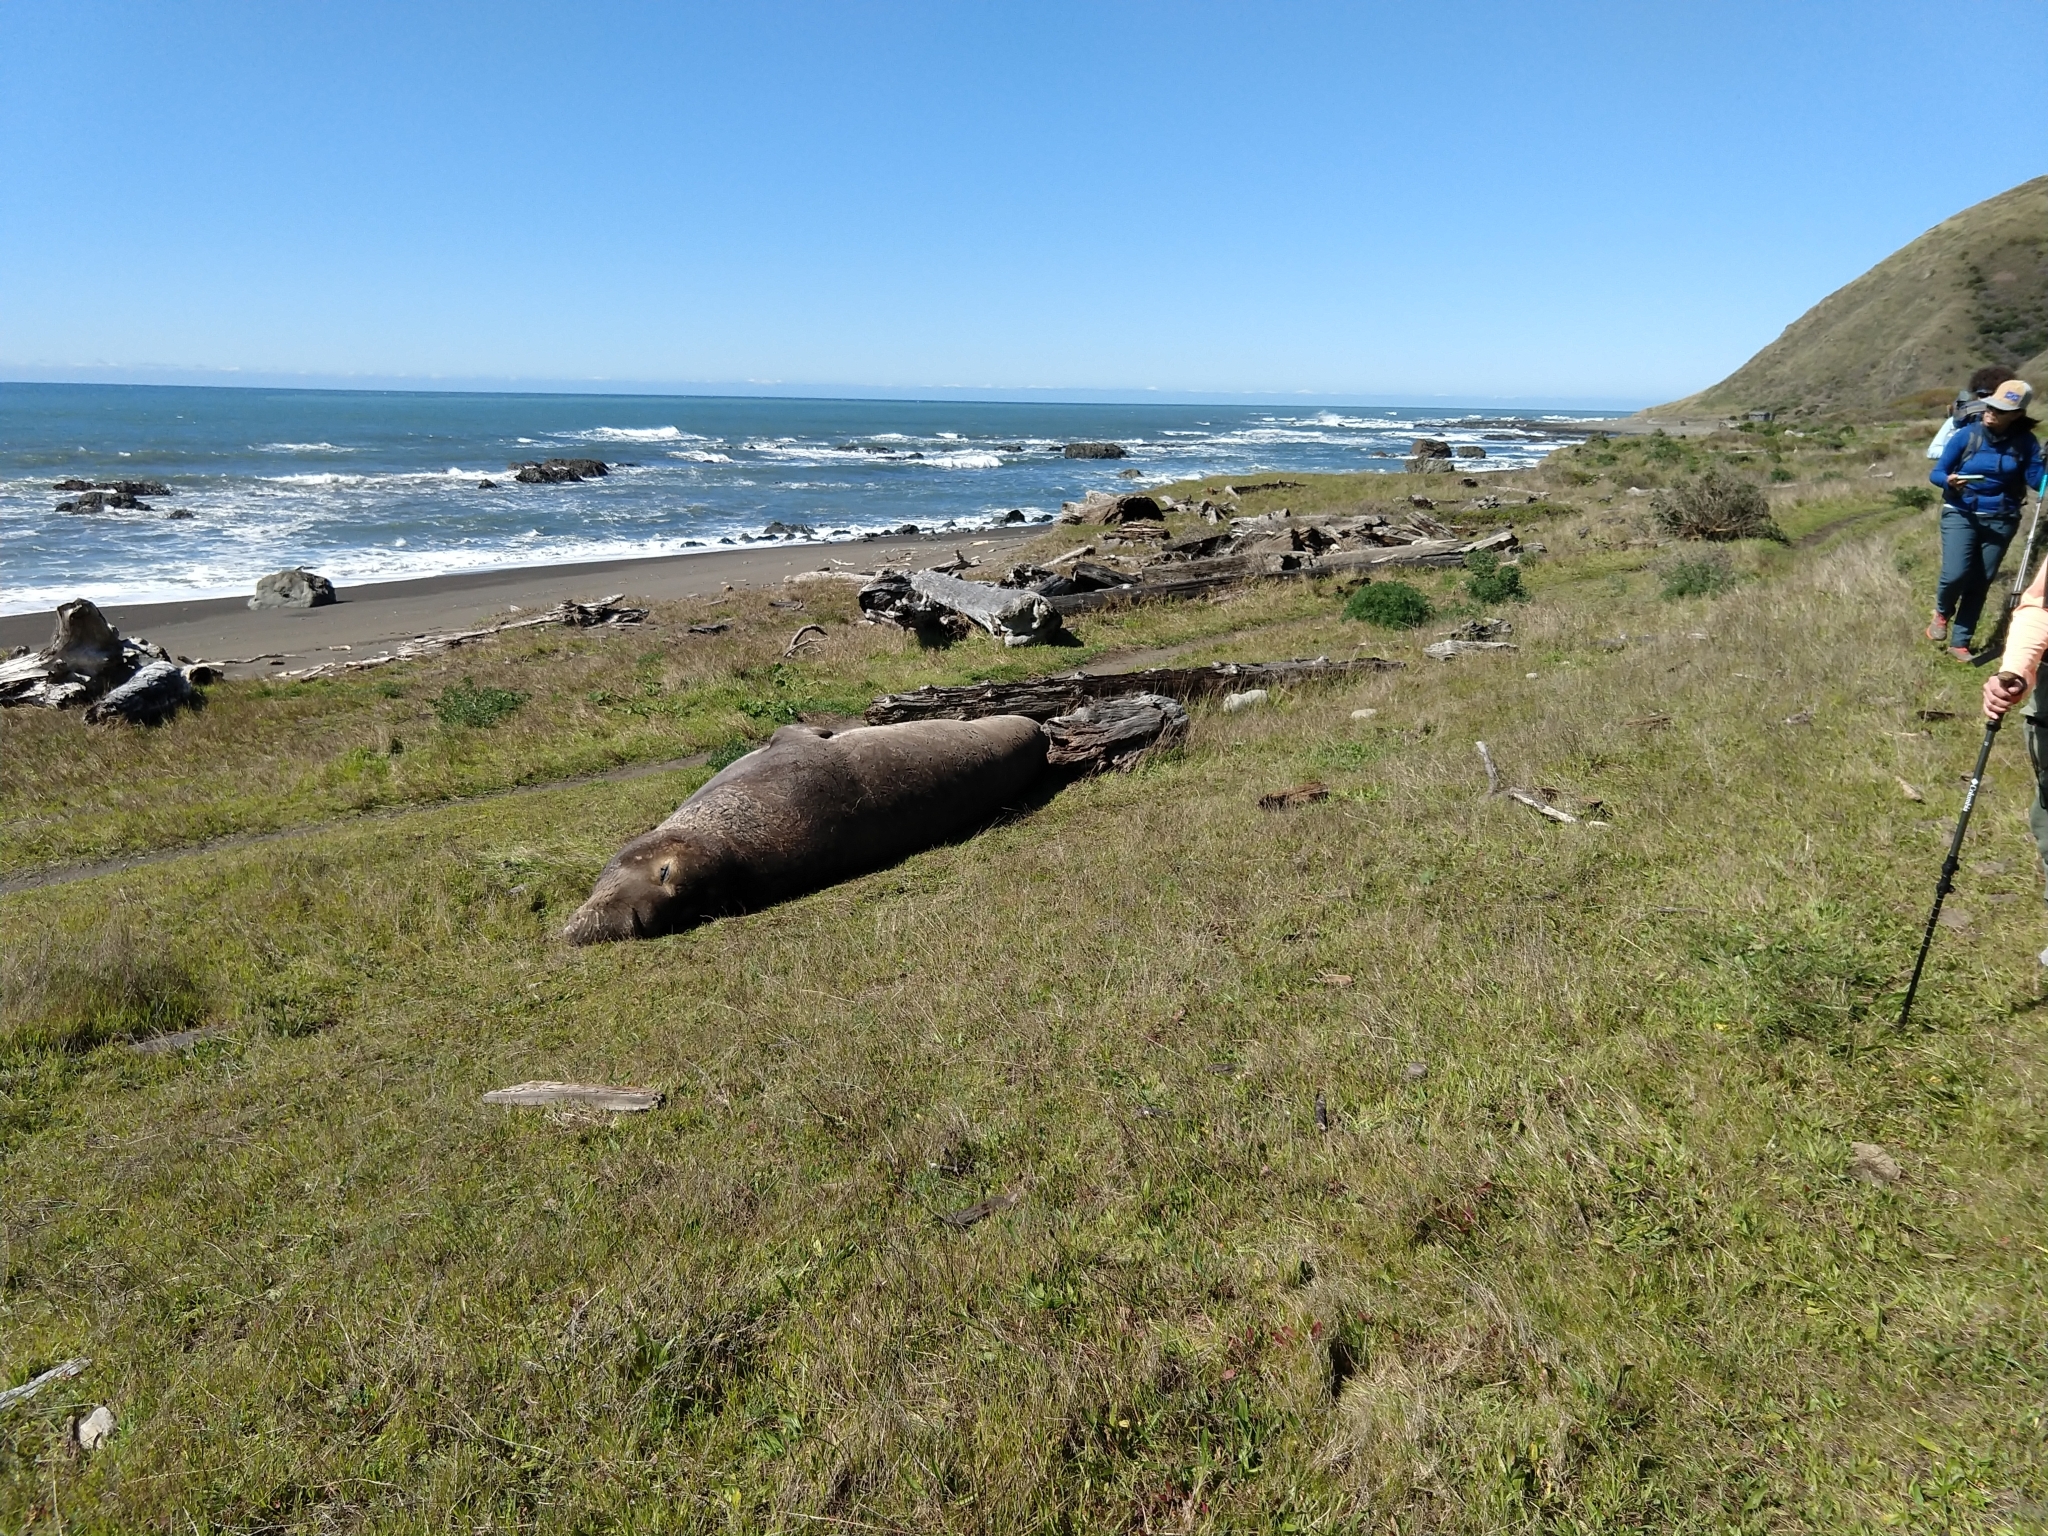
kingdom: Animalia
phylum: Chordata
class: Mammalia
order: Carnivora
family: Phocidae
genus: Mirounga
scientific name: Mirounga angustirostris
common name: Northern elephant seal
